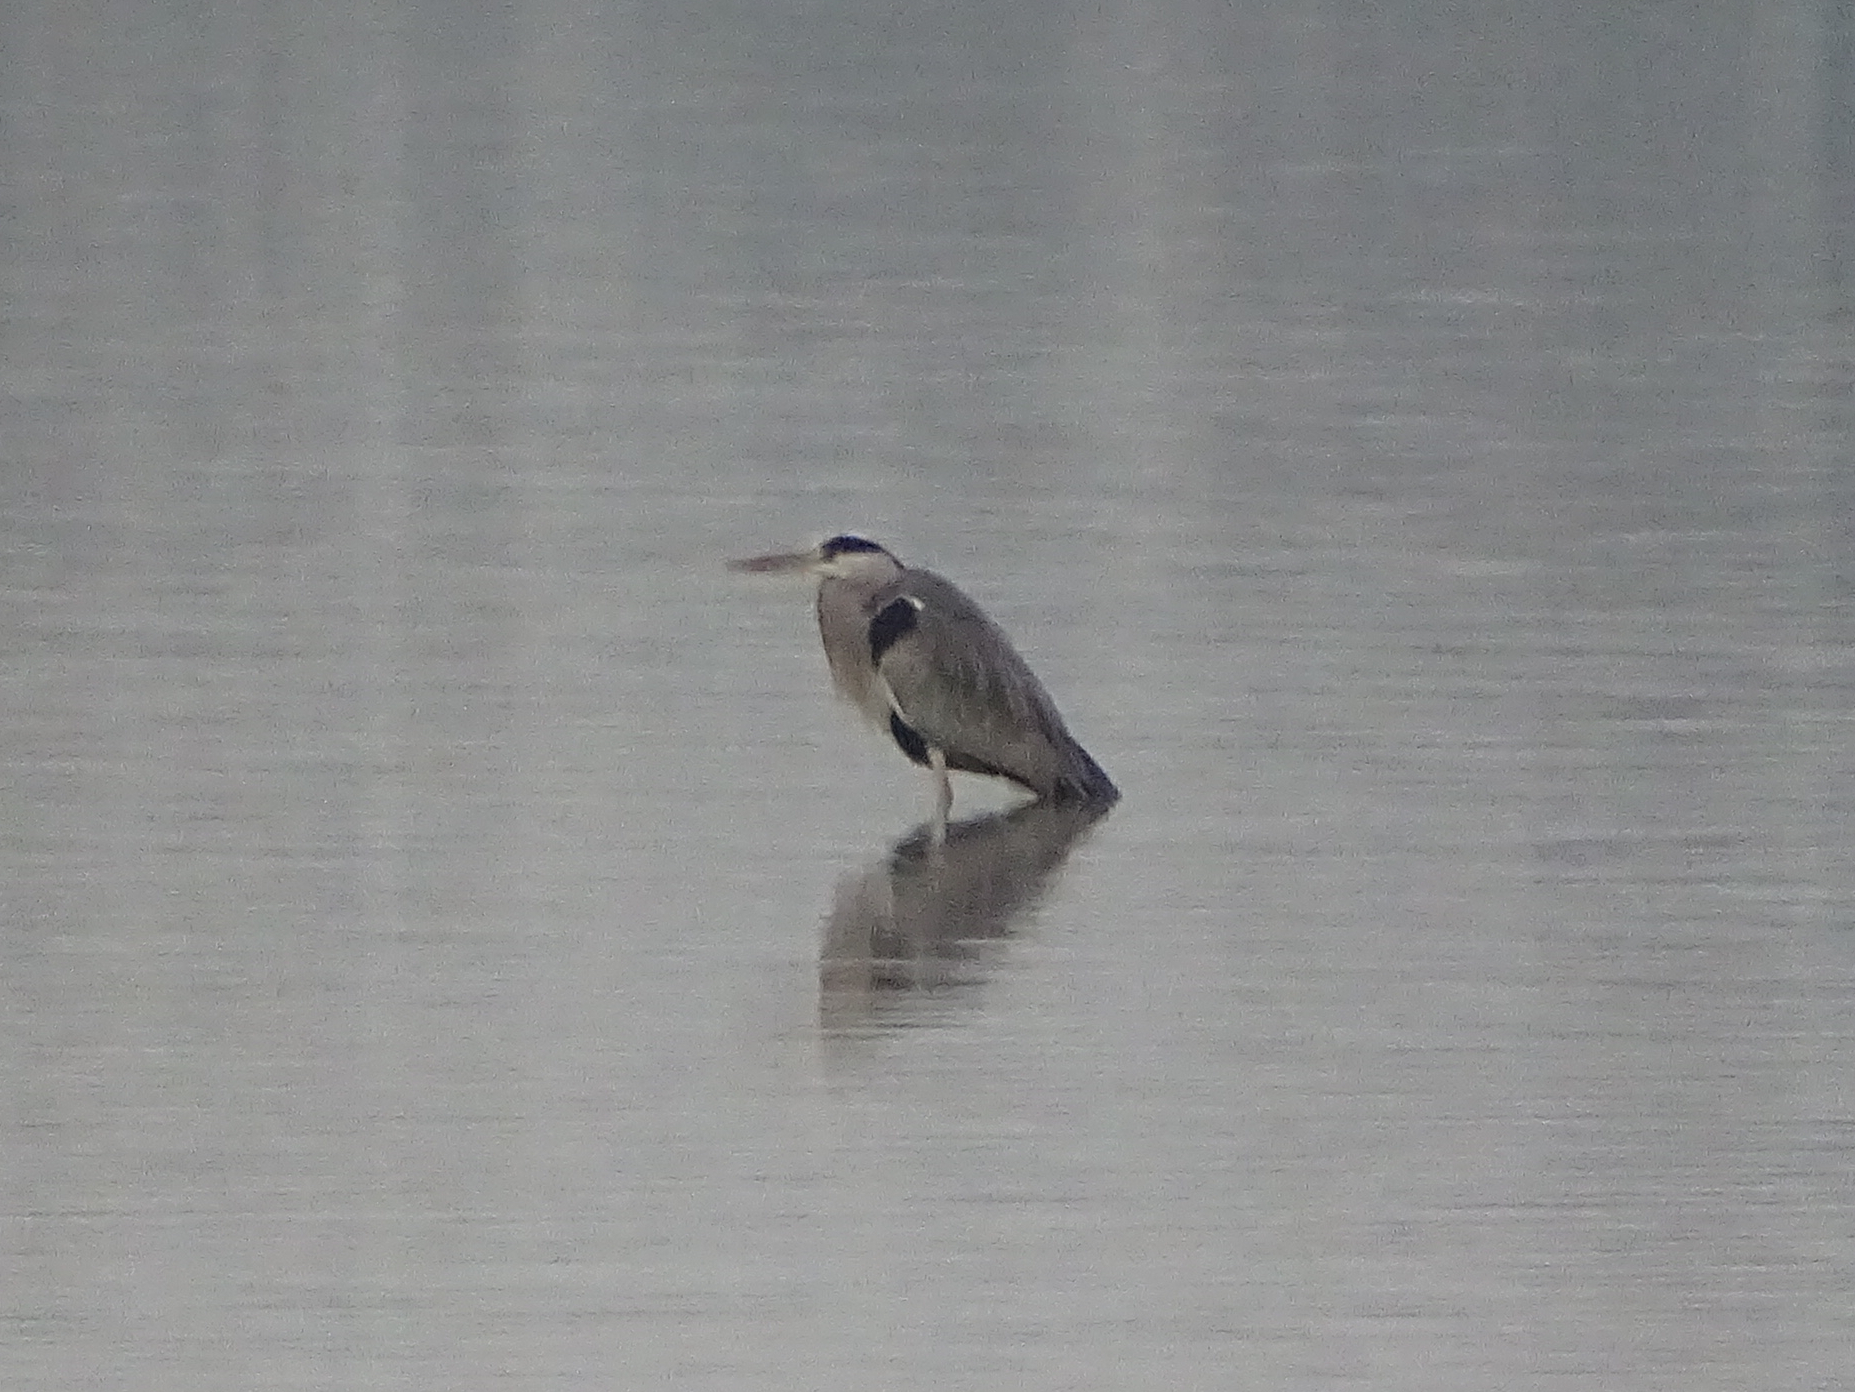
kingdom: Animalia
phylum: Chordata
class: Aves
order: Pelecaniformes
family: Ardeidae
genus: Ardea
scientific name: Ardea cinerea
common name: Grey heron
